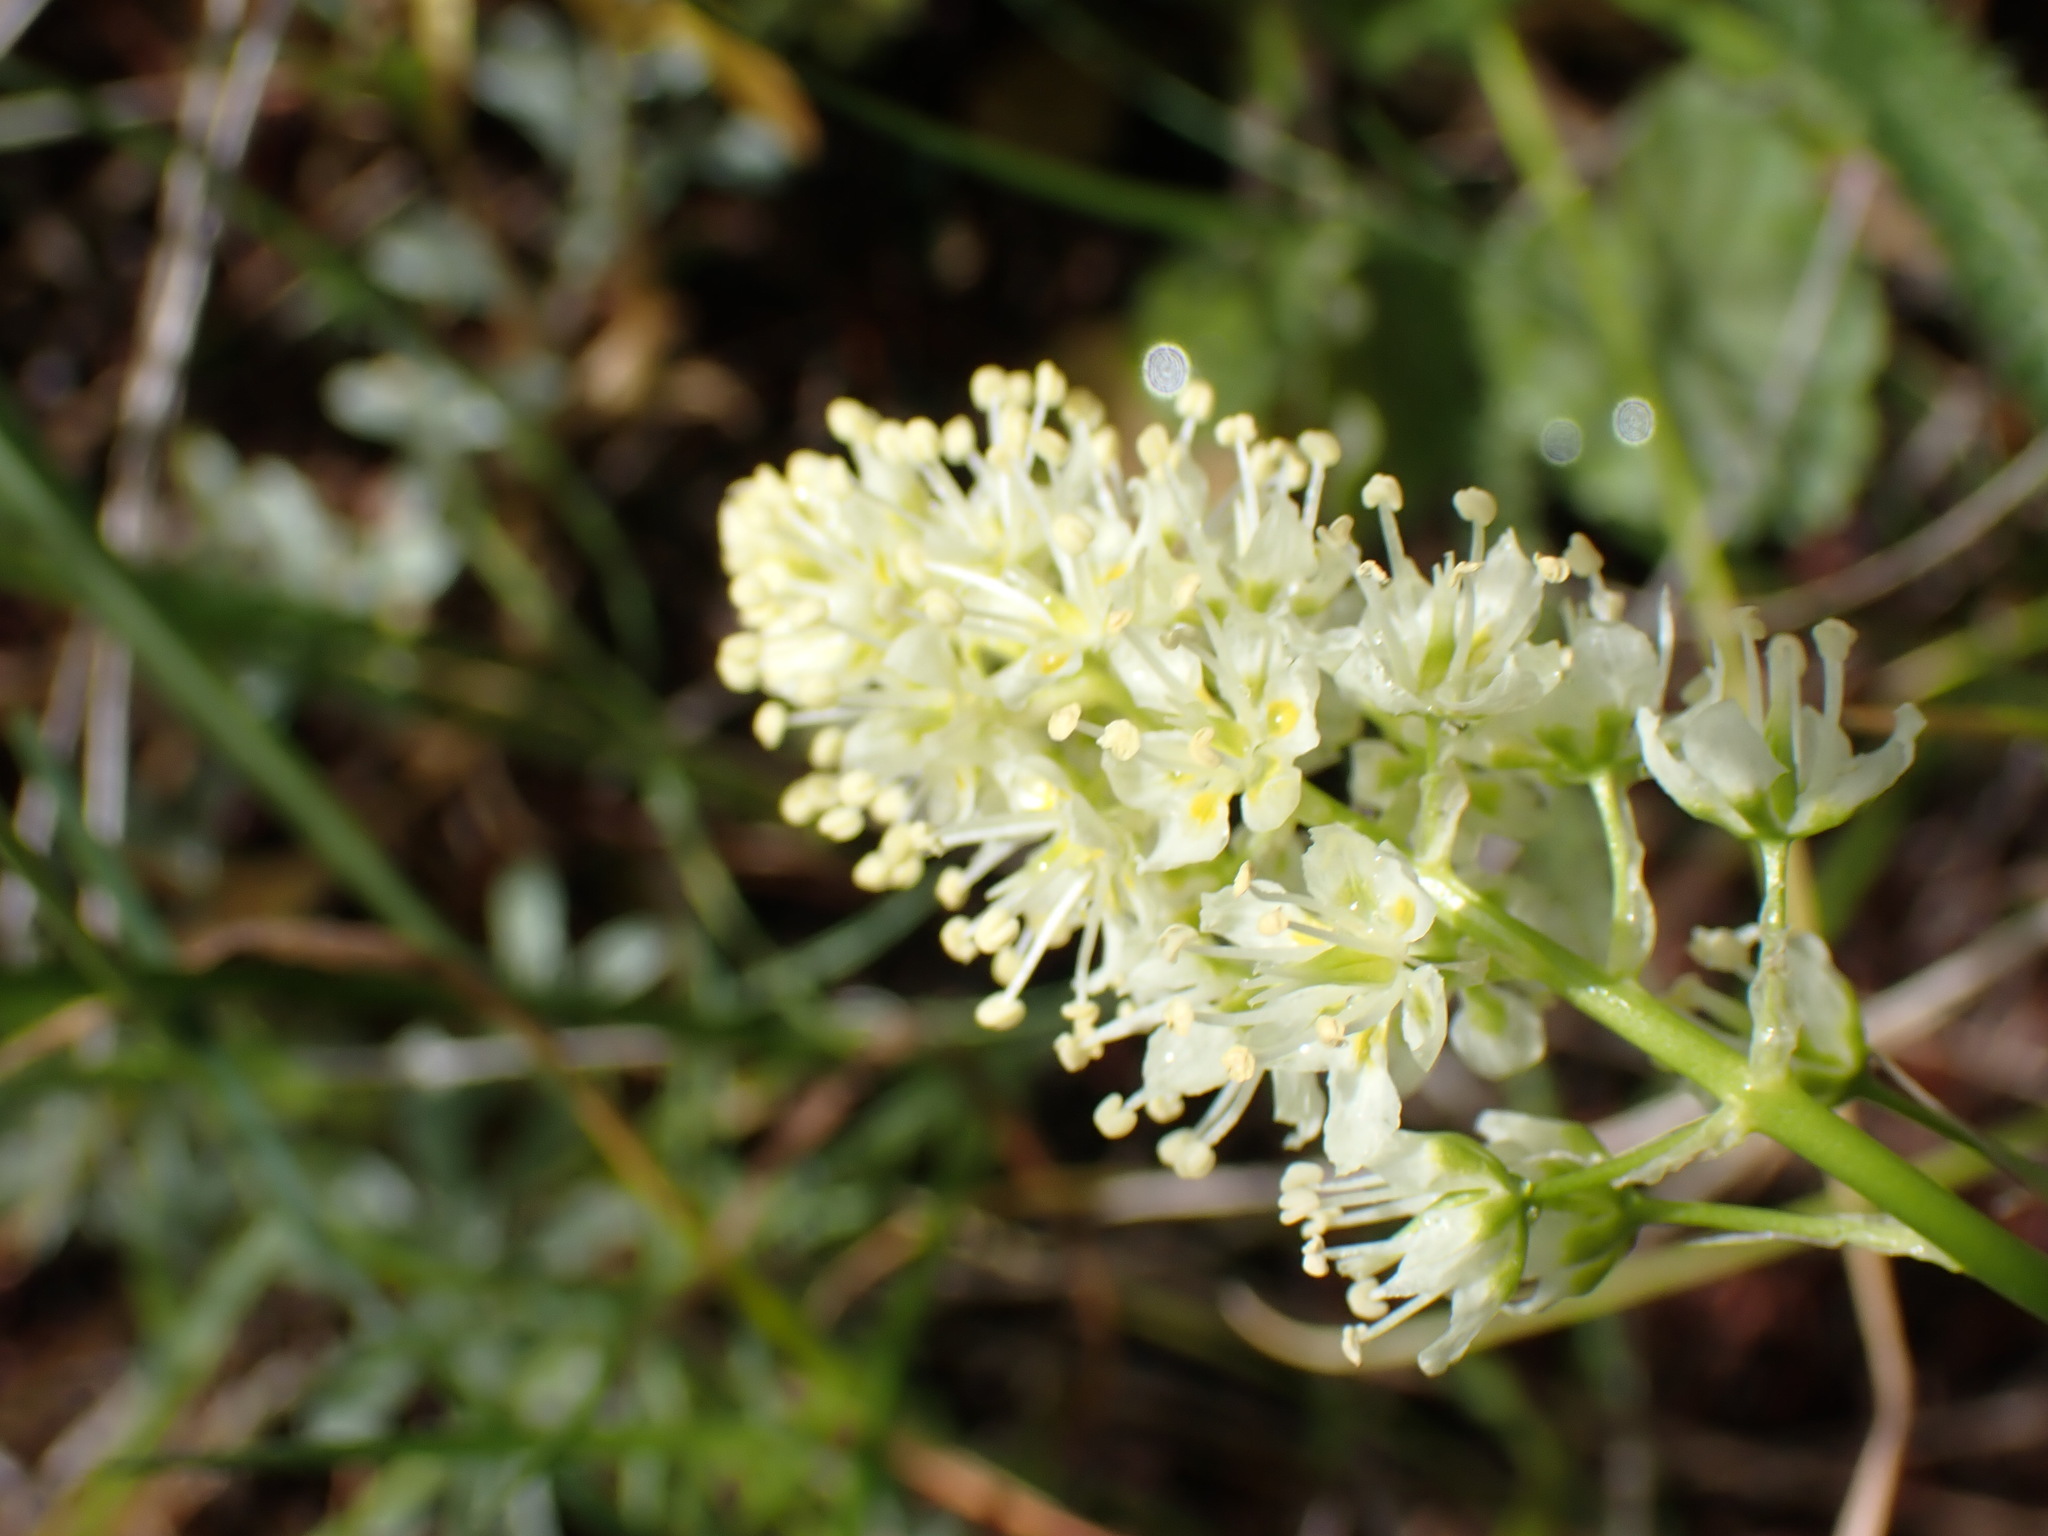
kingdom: Plantae
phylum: Tracheophyta
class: Liliopsida
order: Liliales
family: Melanthiaceae
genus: Toxicoscordion
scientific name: Toxicoscordion venenosum
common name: Meadow death camas
